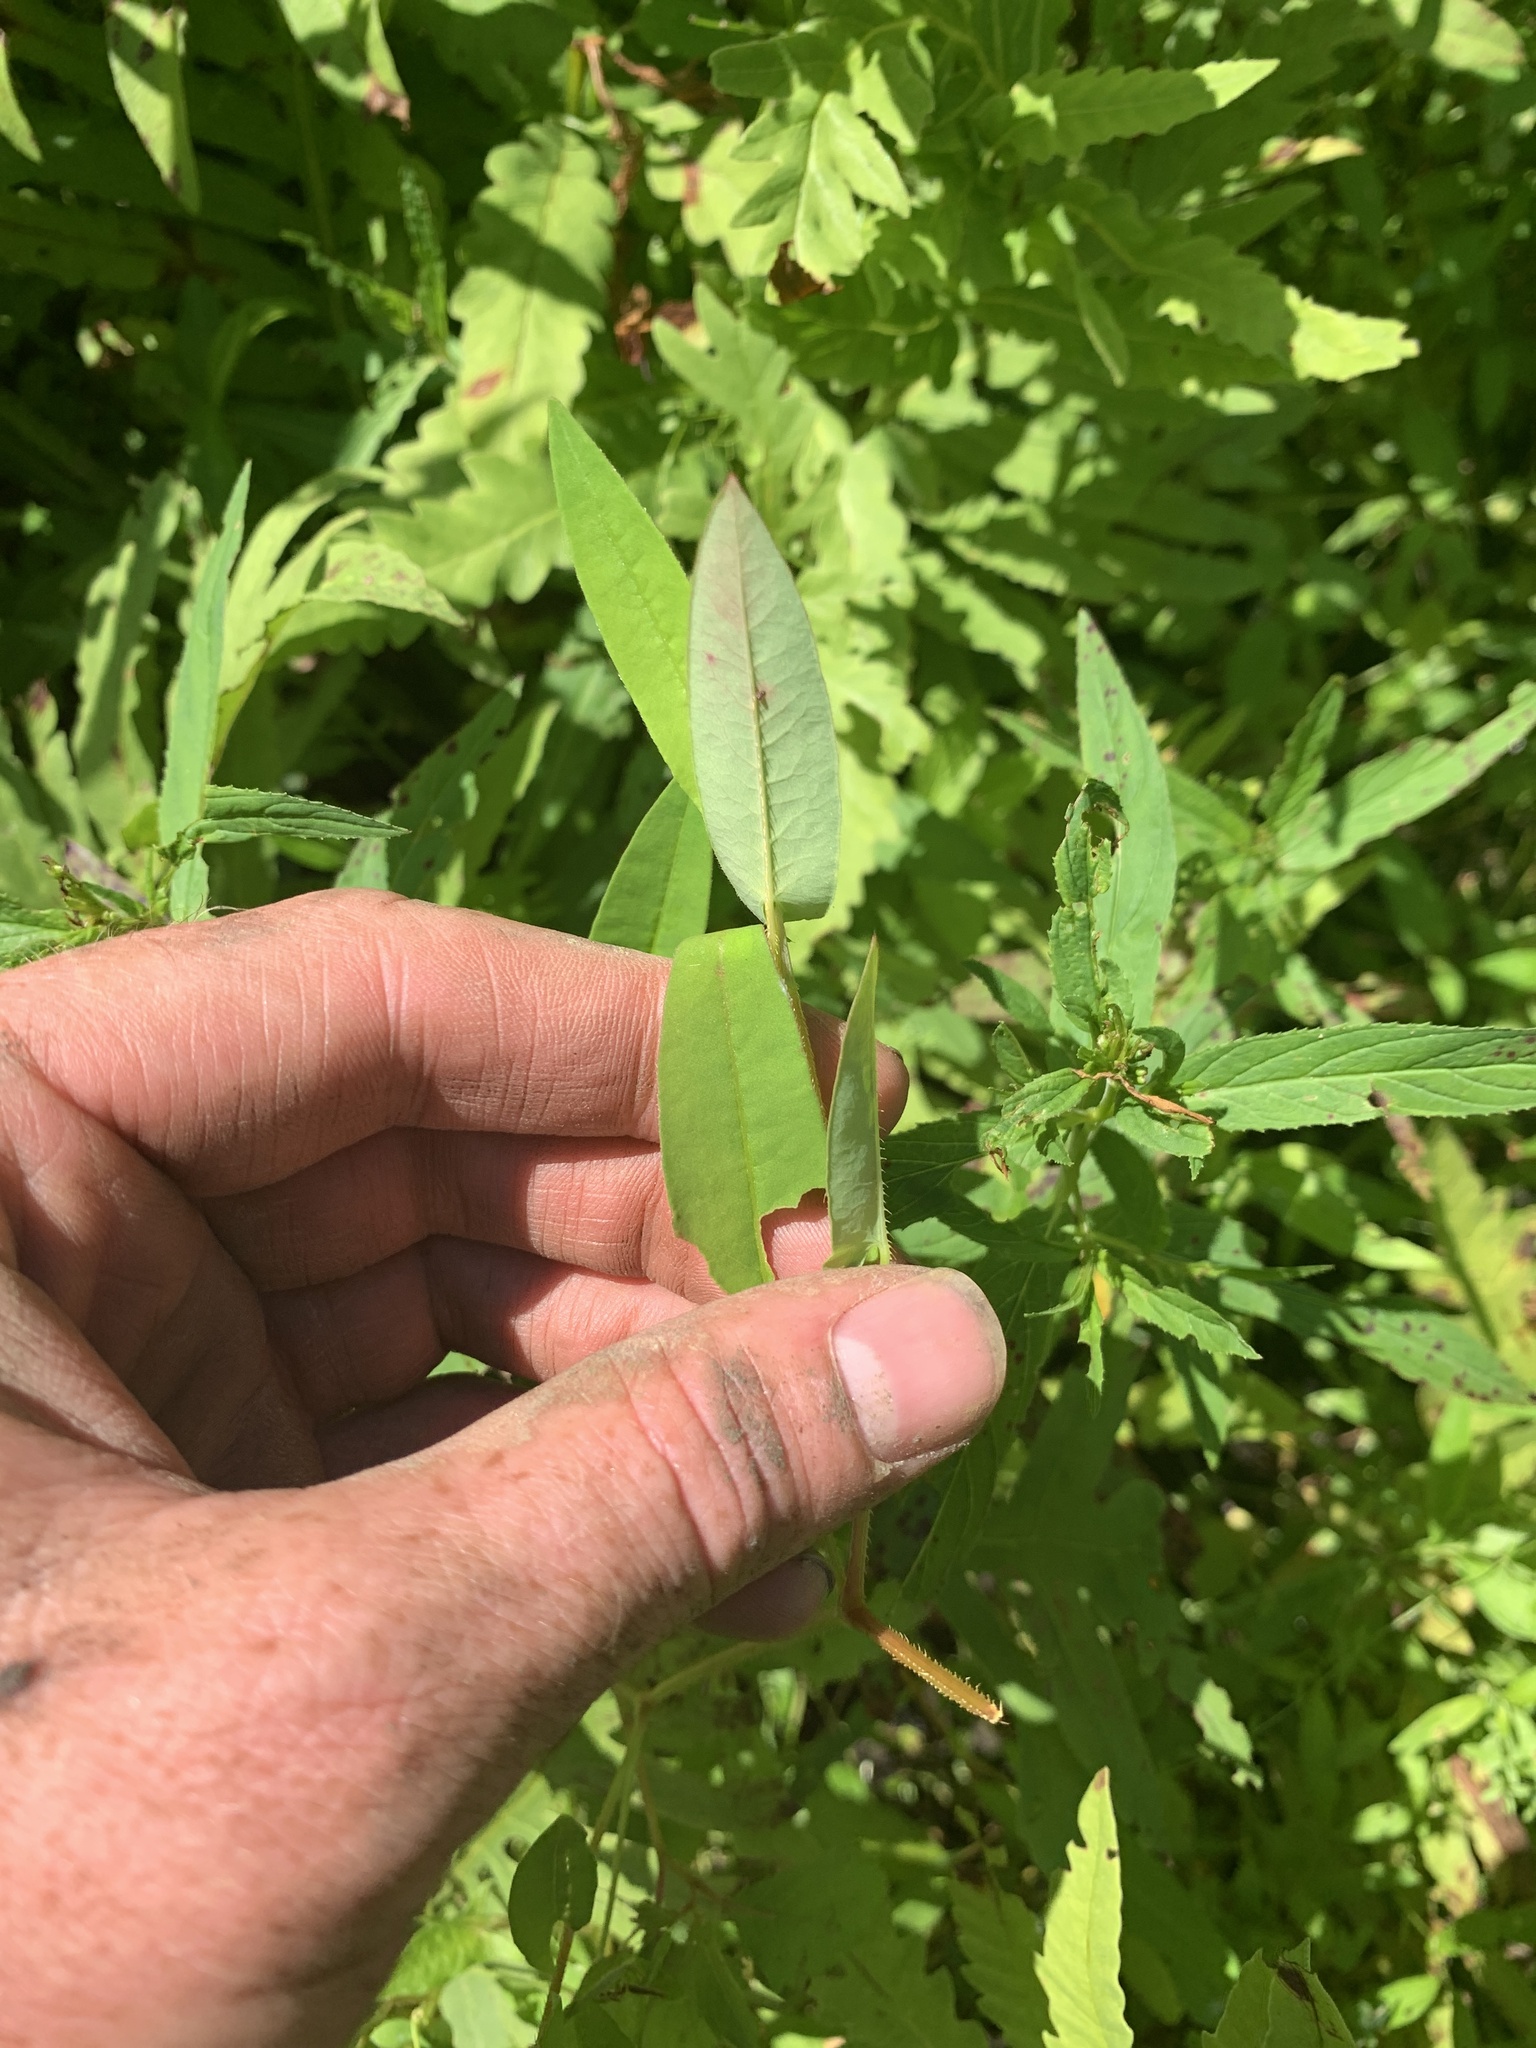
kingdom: Plantae
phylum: Tracheophyta
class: Magnoliopsida
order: Caryophyllales
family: Polygonaceae
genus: Persicaria
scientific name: Persicaria sagittata
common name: American tearthumb
